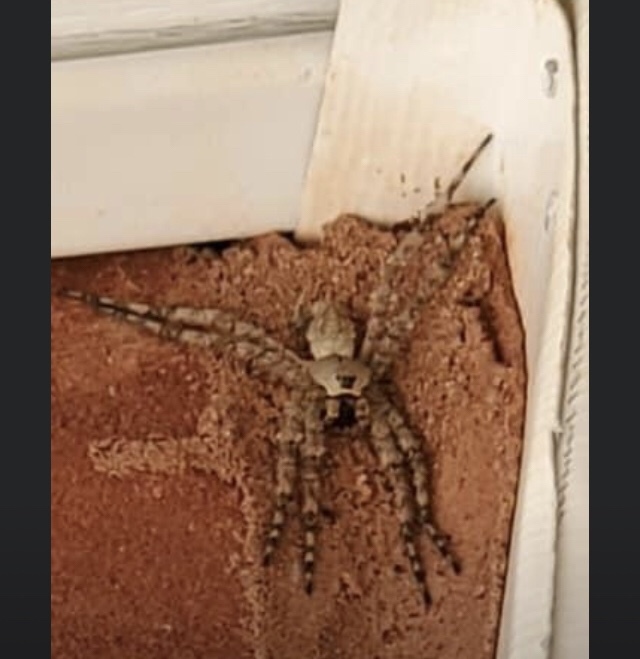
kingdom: Animalia
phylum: Arthropoda
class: Arachnida
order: Araneae
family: Pisauridae
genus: Dolomedes
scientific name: Dolomedes albineus
